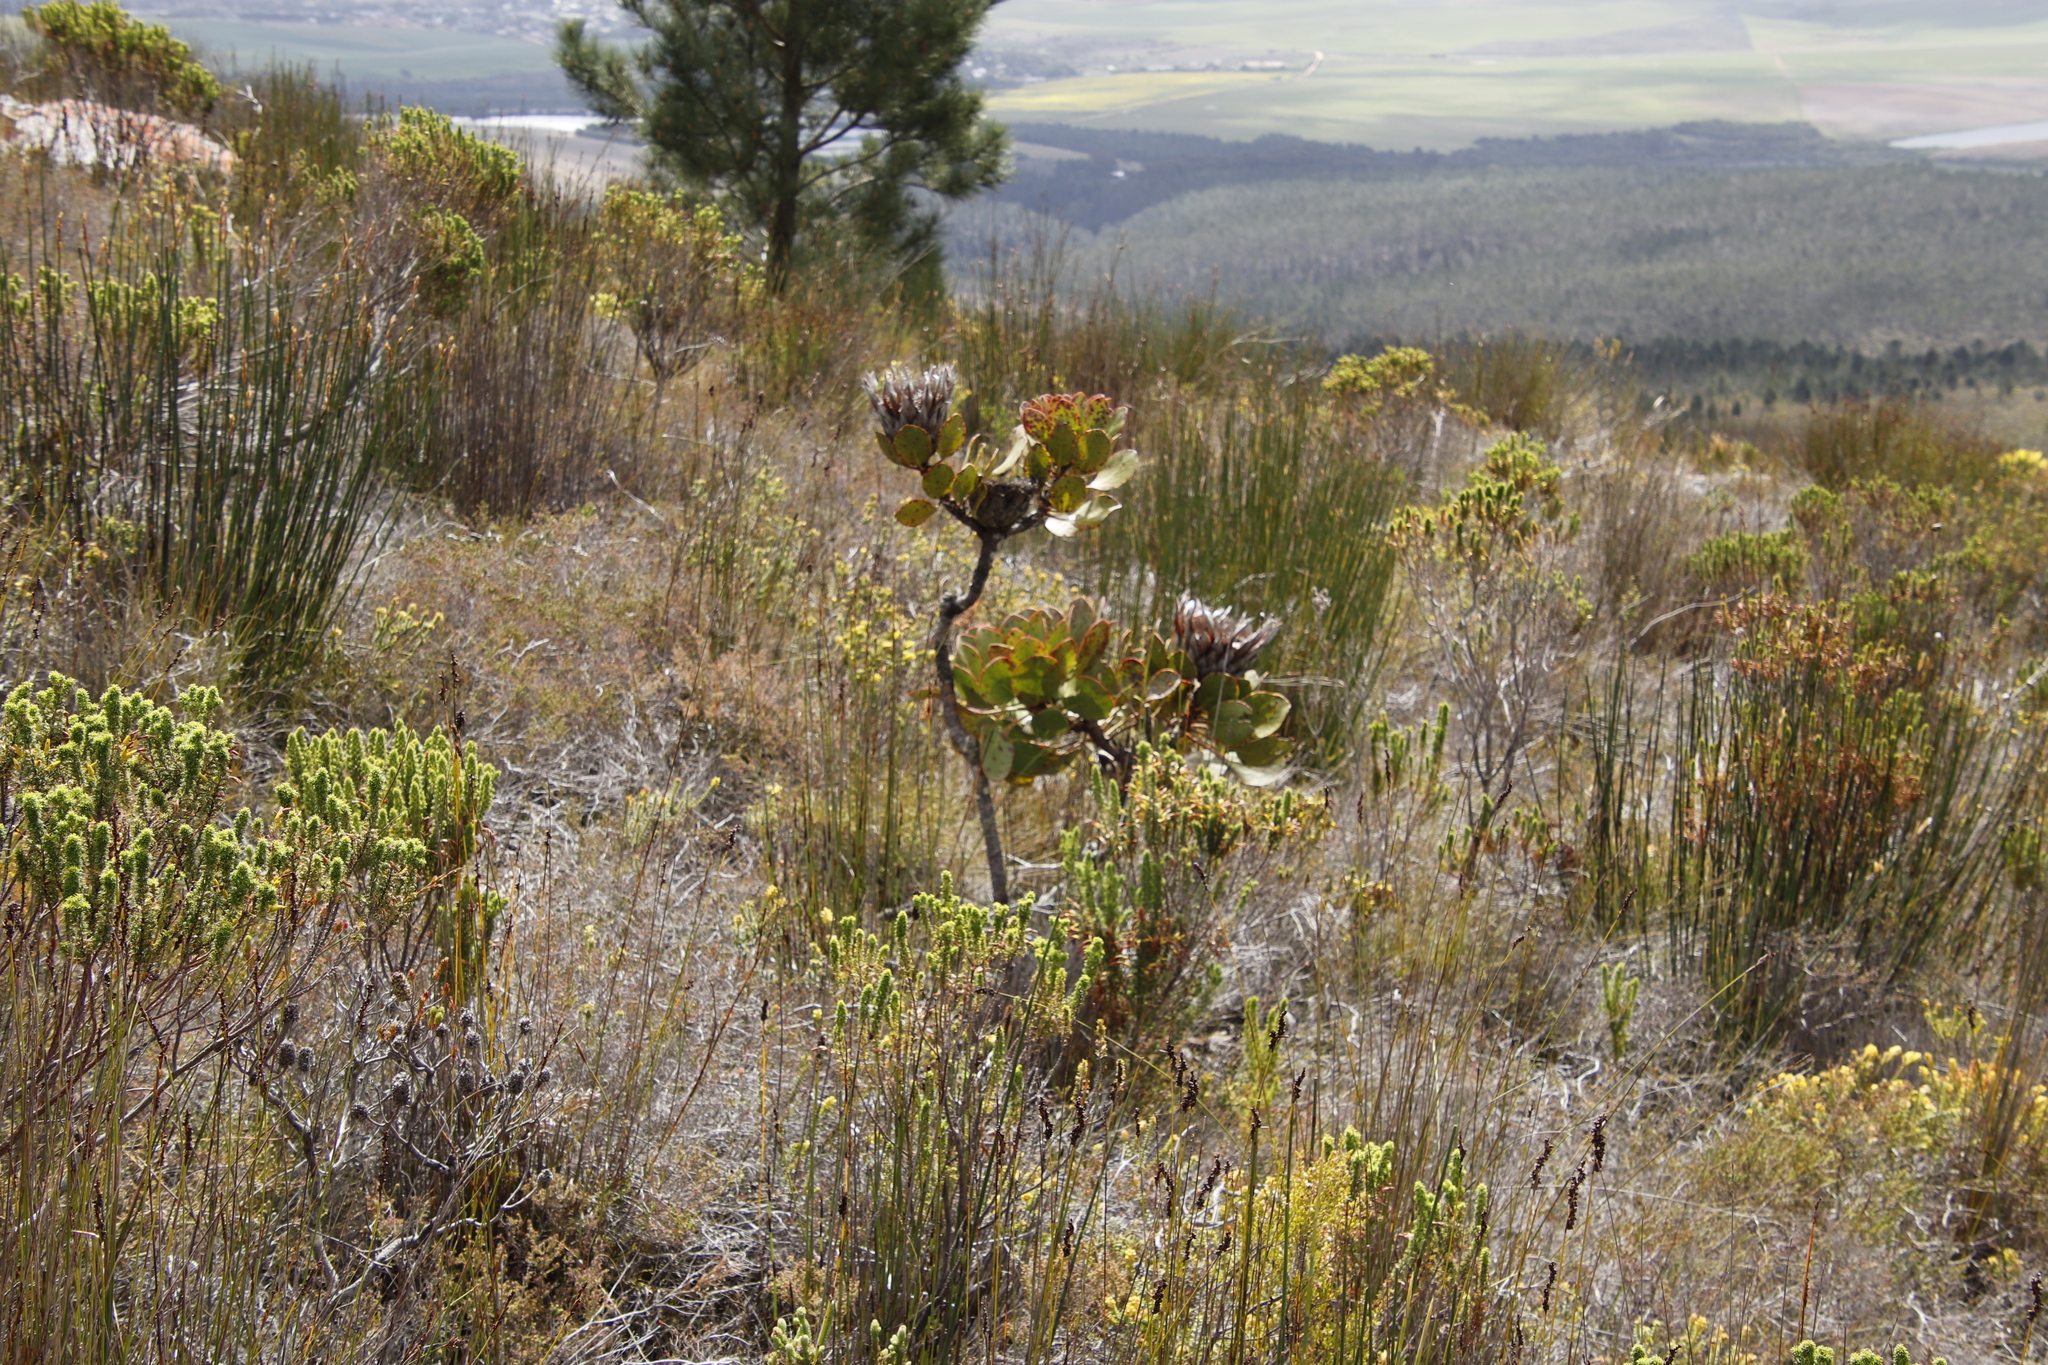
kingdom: Plantae
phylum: Tracheophyta
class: Magnoliopsida
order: Proteales
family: Proteaceae
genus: Protea
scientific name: Protea speciosa
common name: Brown-beard sugarbush
